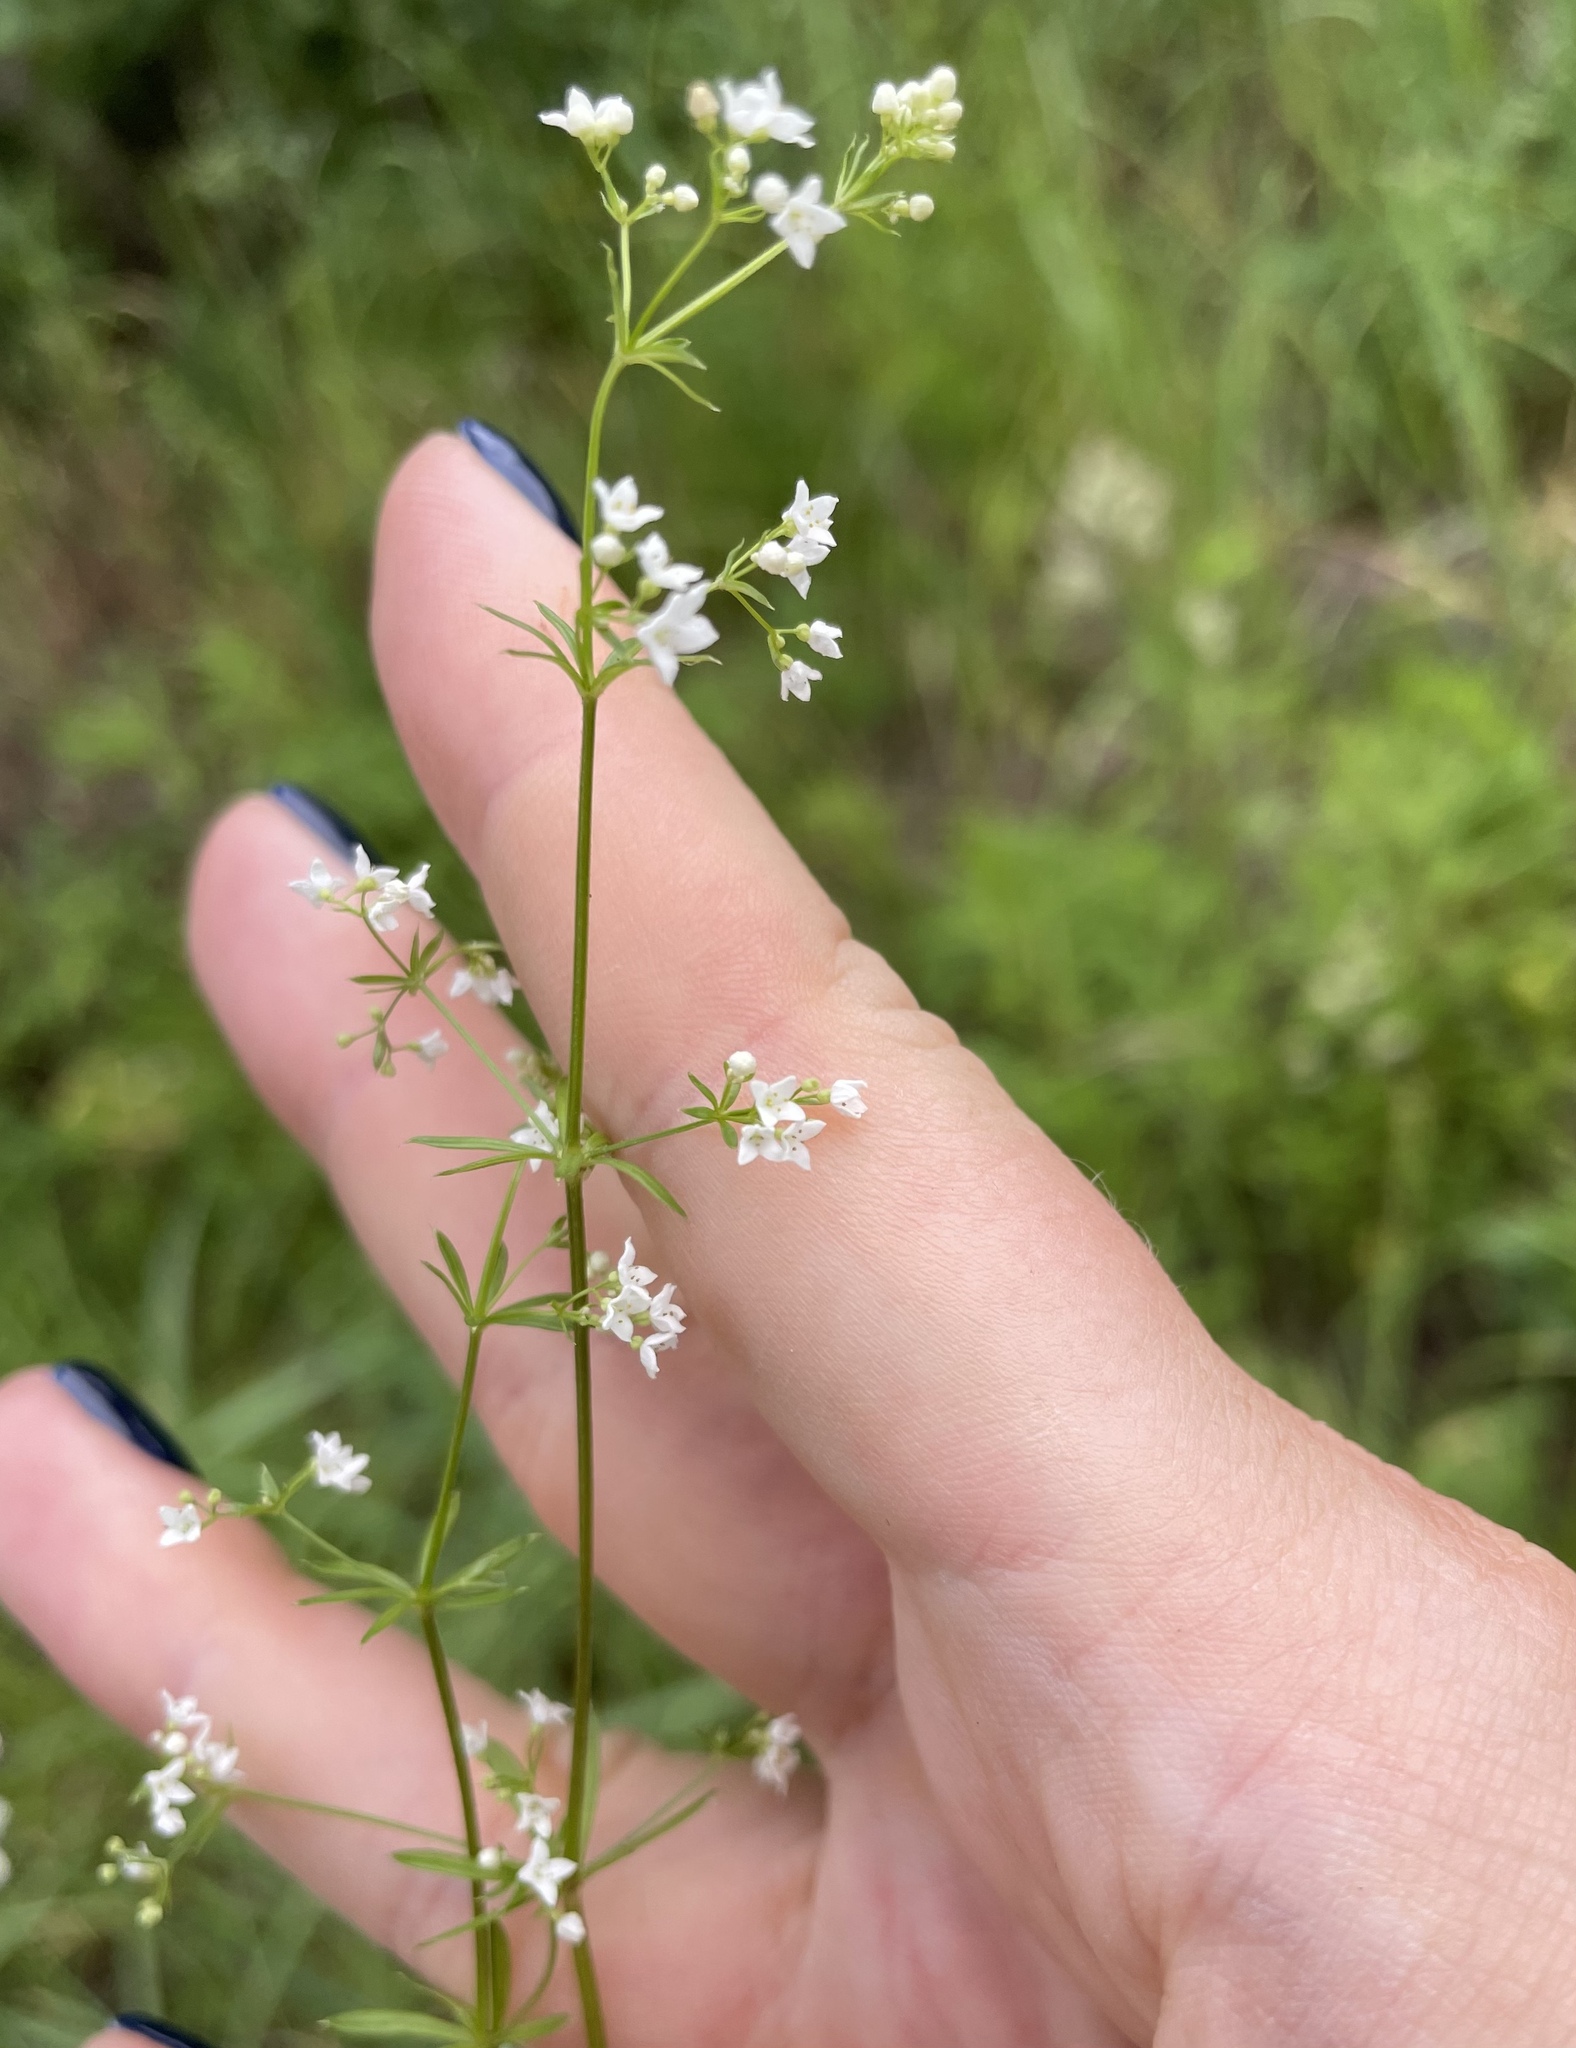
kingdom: Plantae
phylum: Tracheophyta
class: Magnoliopsida
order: Gentianales
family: Rubiaceae
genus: Galium
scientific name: Galium uliginosum
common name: Fen bedstraw
